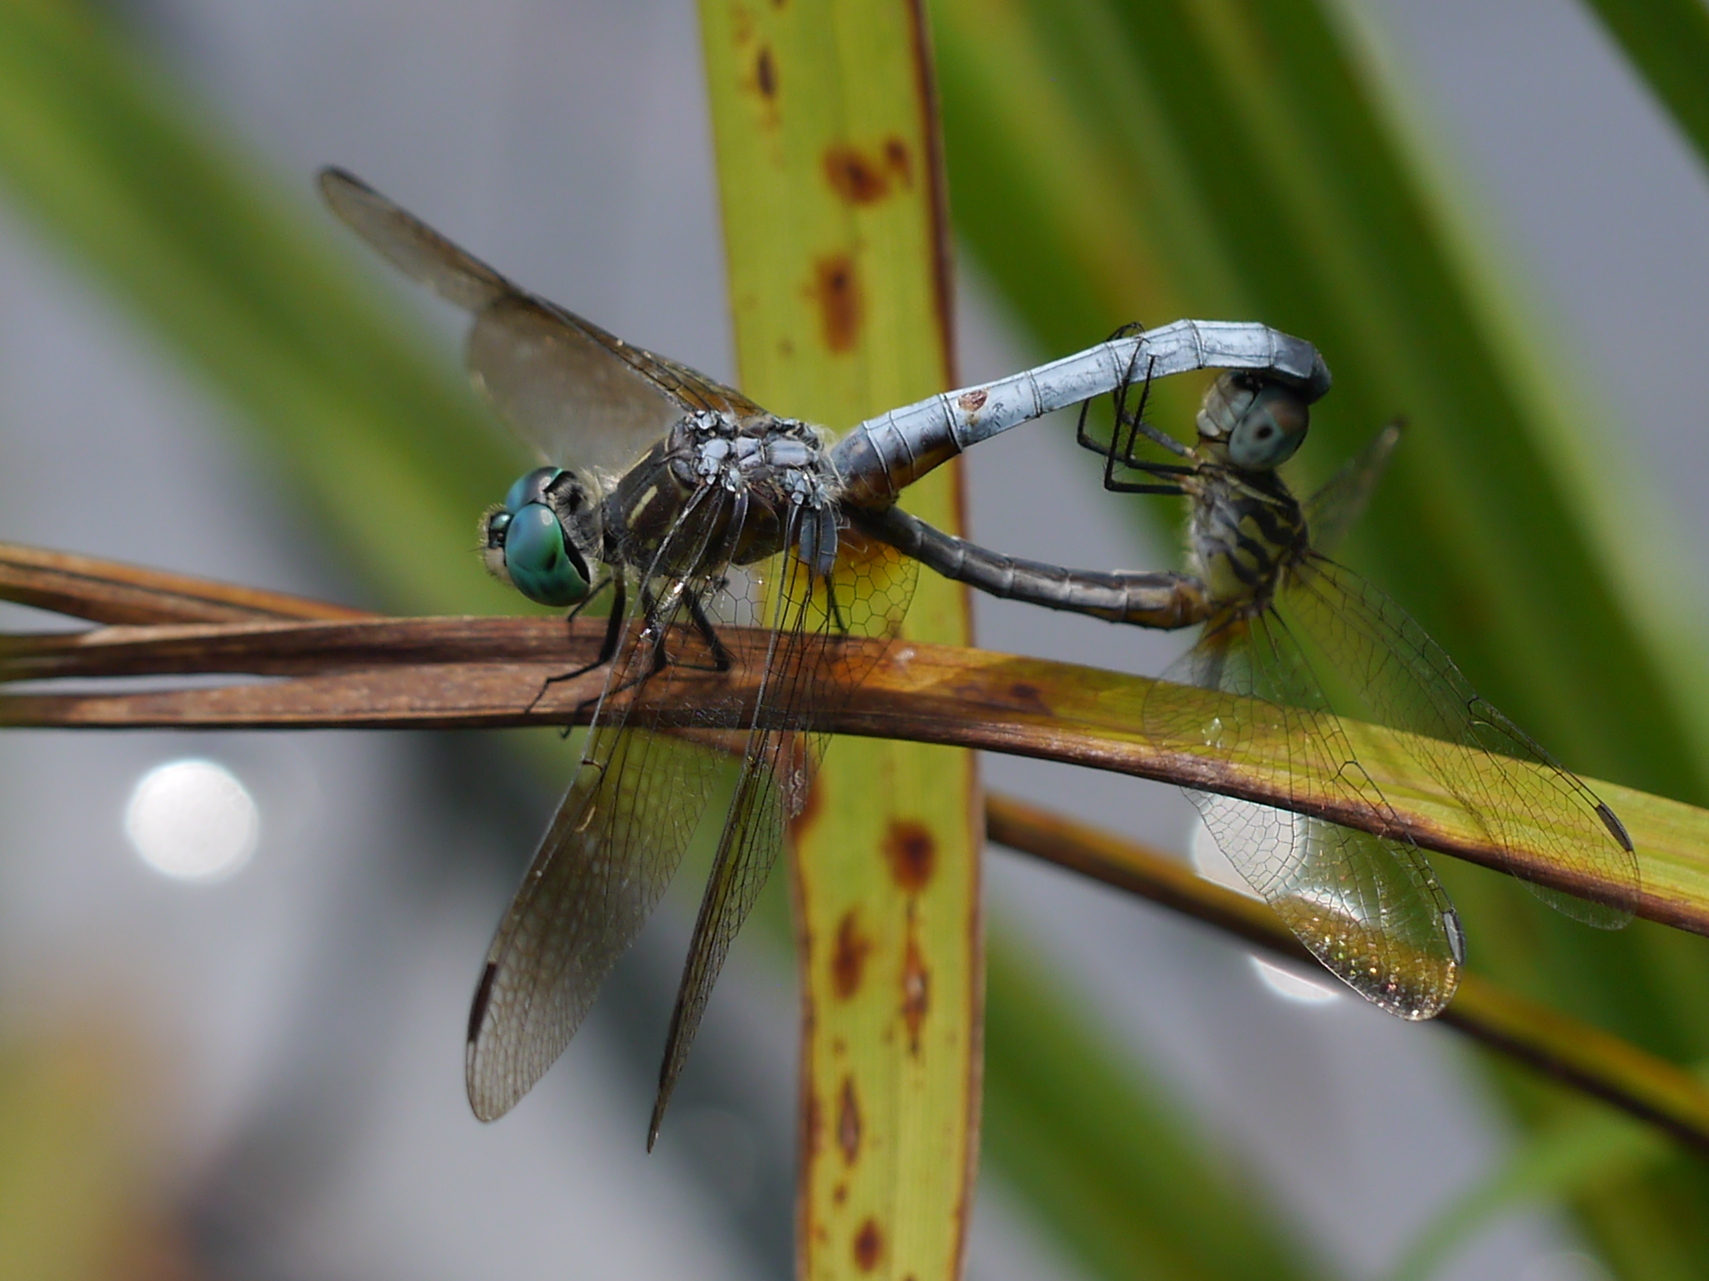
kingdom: Animalia
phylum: Arthropoda
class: Insecta
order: Odonata
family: Libellulidae
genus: Pachydiplax
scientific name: Pachydiplax longipennis
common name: Blue dasher
